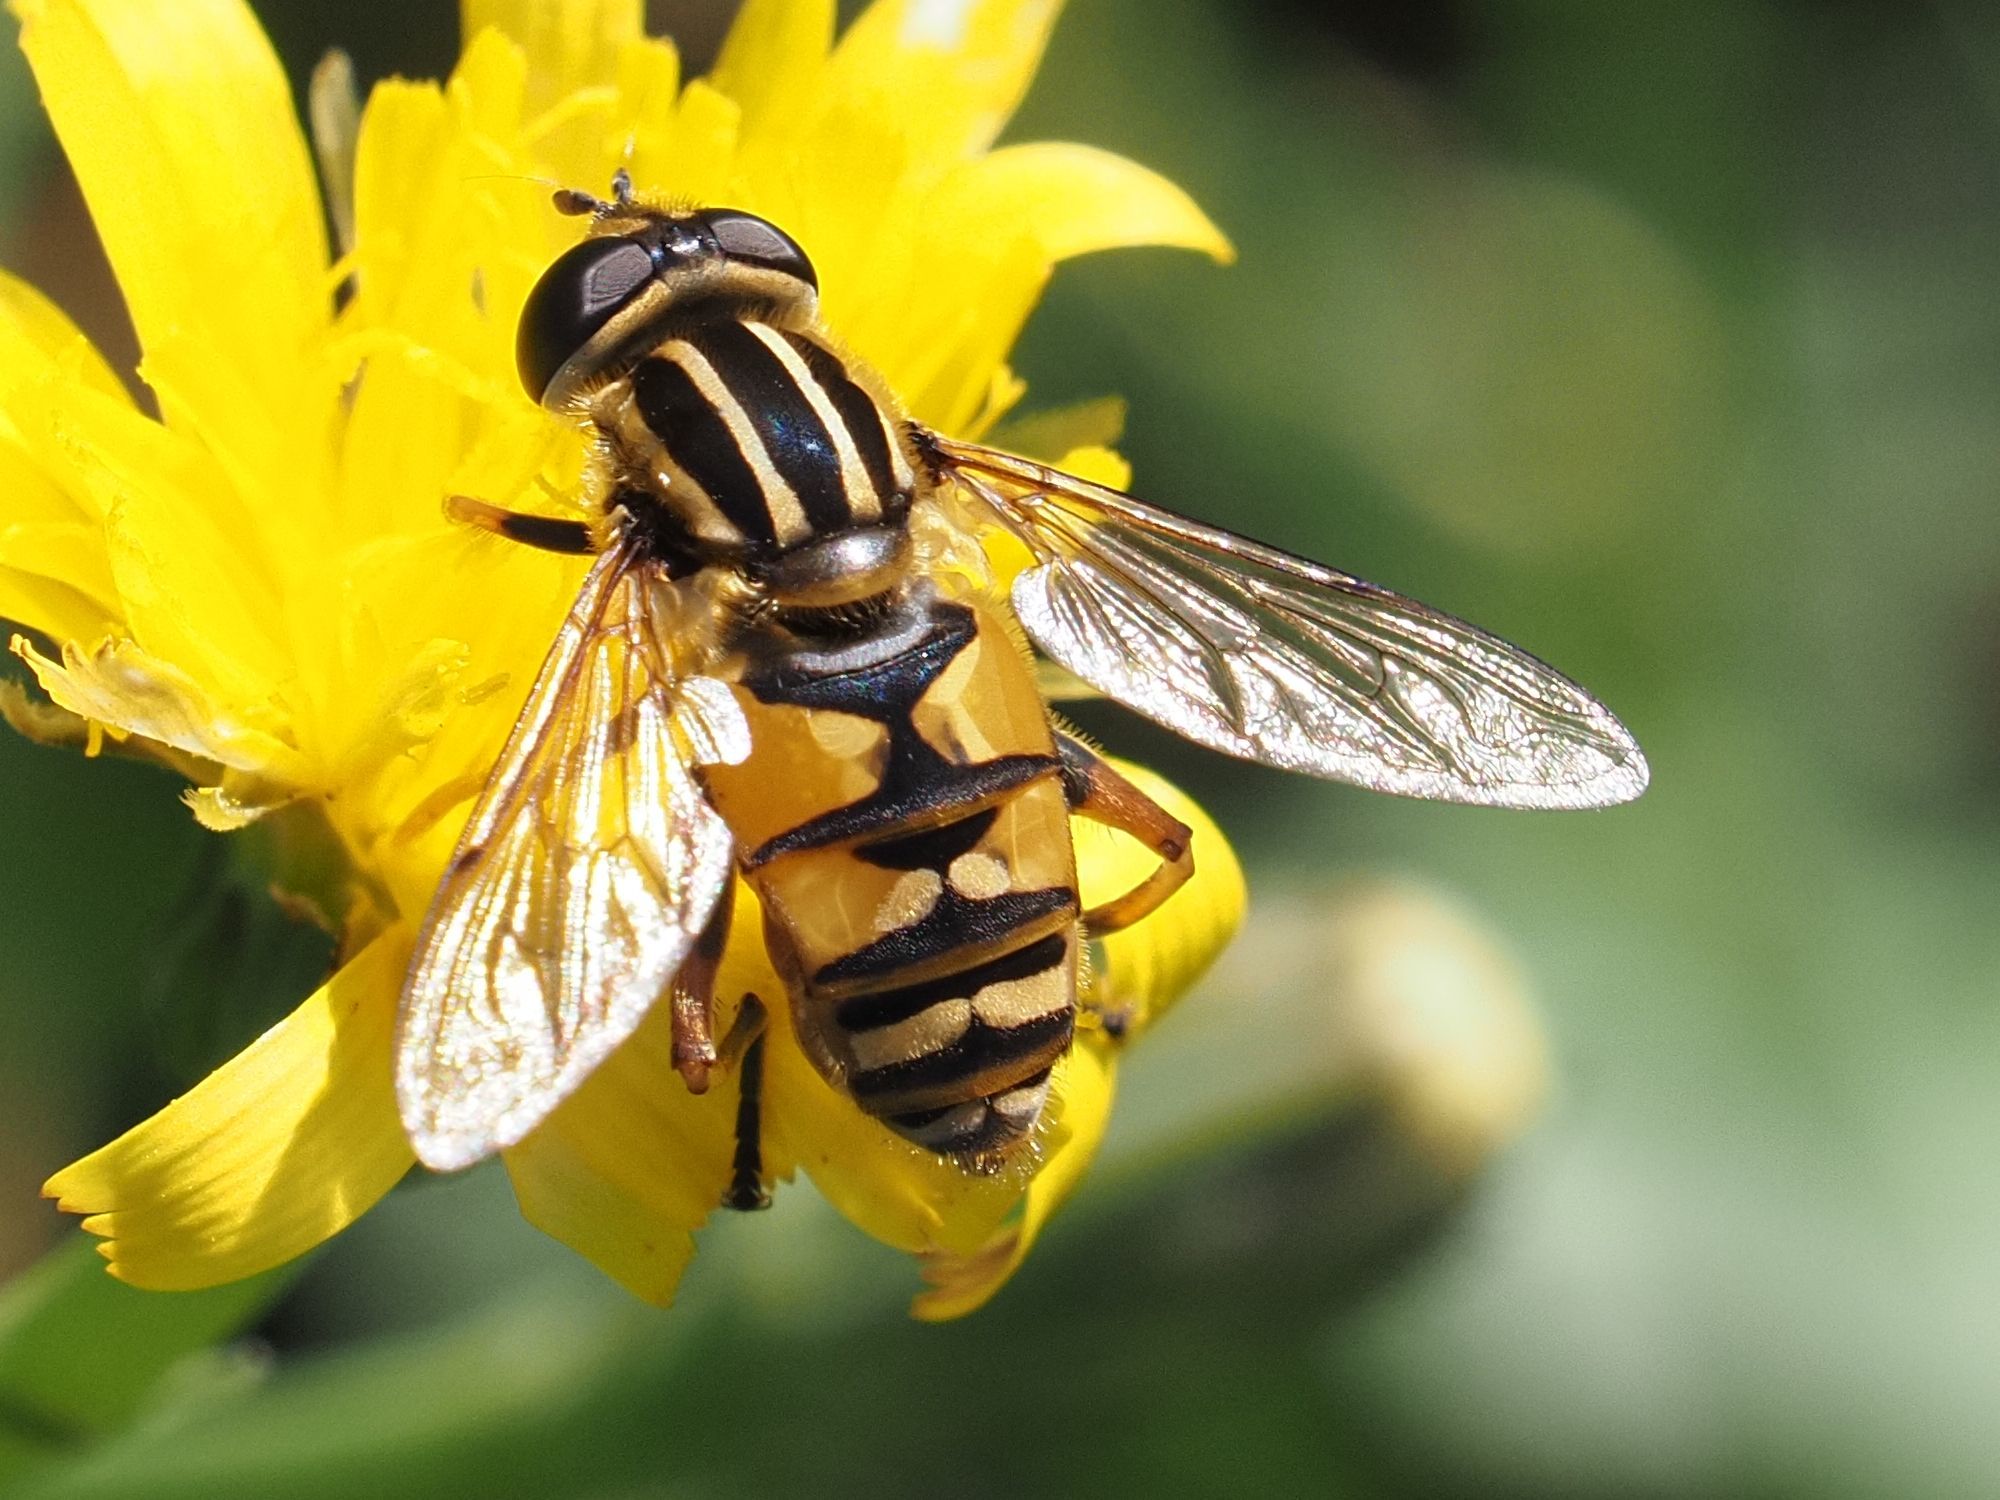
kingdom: Animalia
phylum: Arthropoda
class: Insecta
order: Diptera
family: Syrphidae
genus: Helophilus
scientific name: Helophilus pendulus
